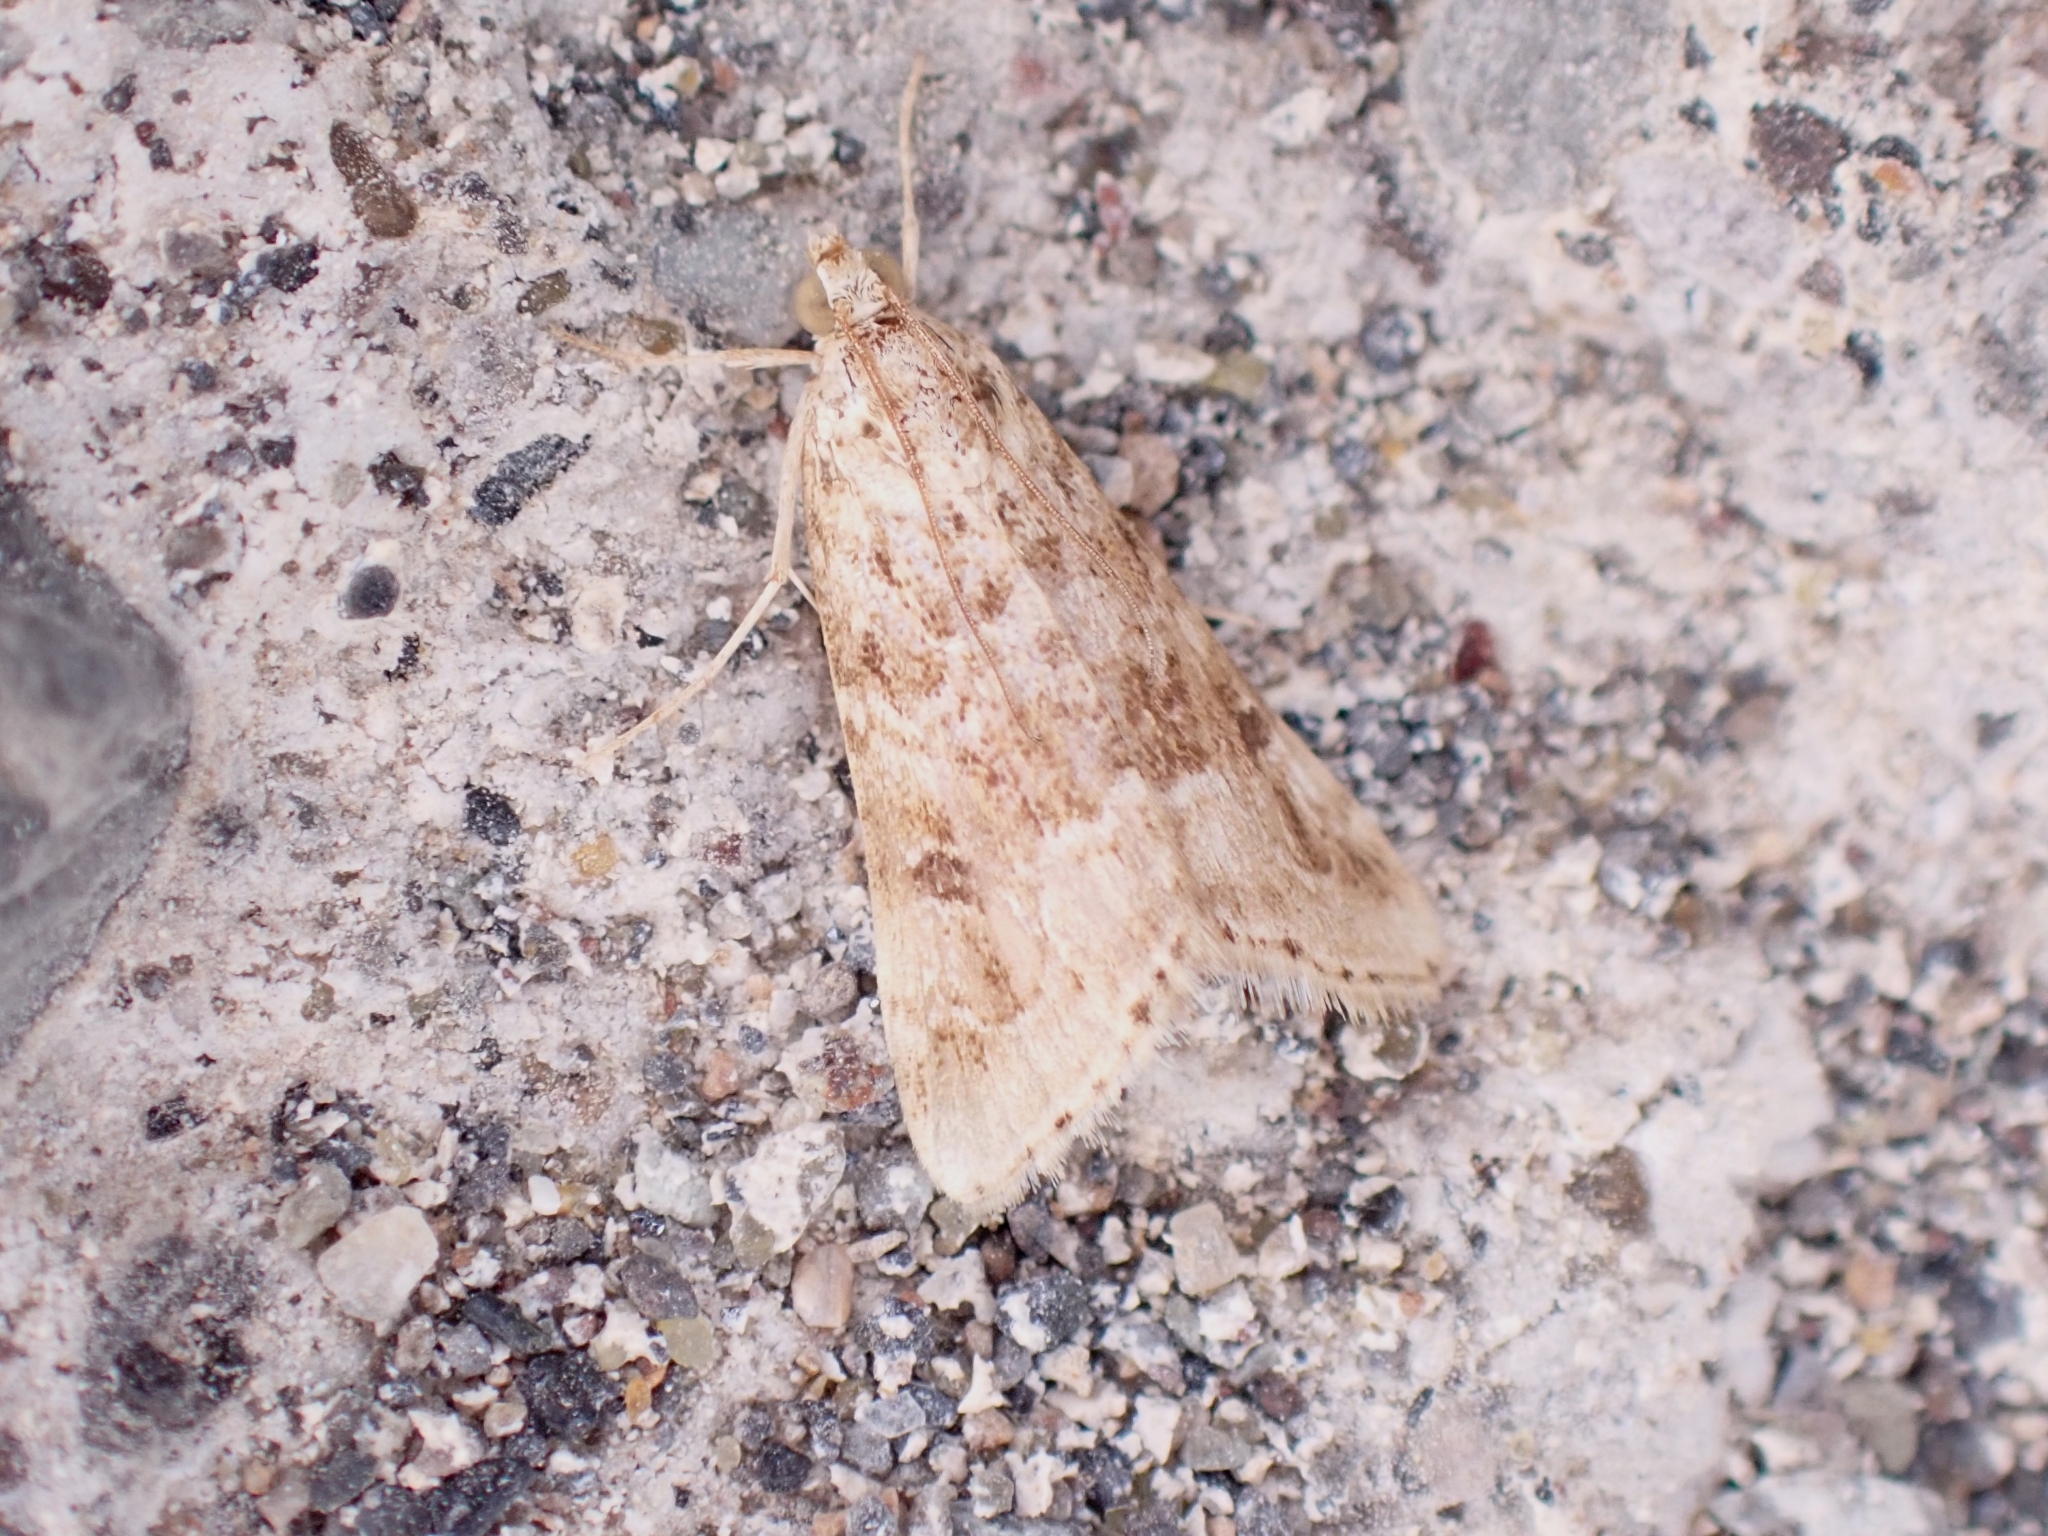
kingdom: Animalia
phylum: Arthropoda
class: Insecta
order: Lepidoptera
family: Crambidae
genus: Hellula
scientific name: Hellula undalis
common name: Cabbage webworm
